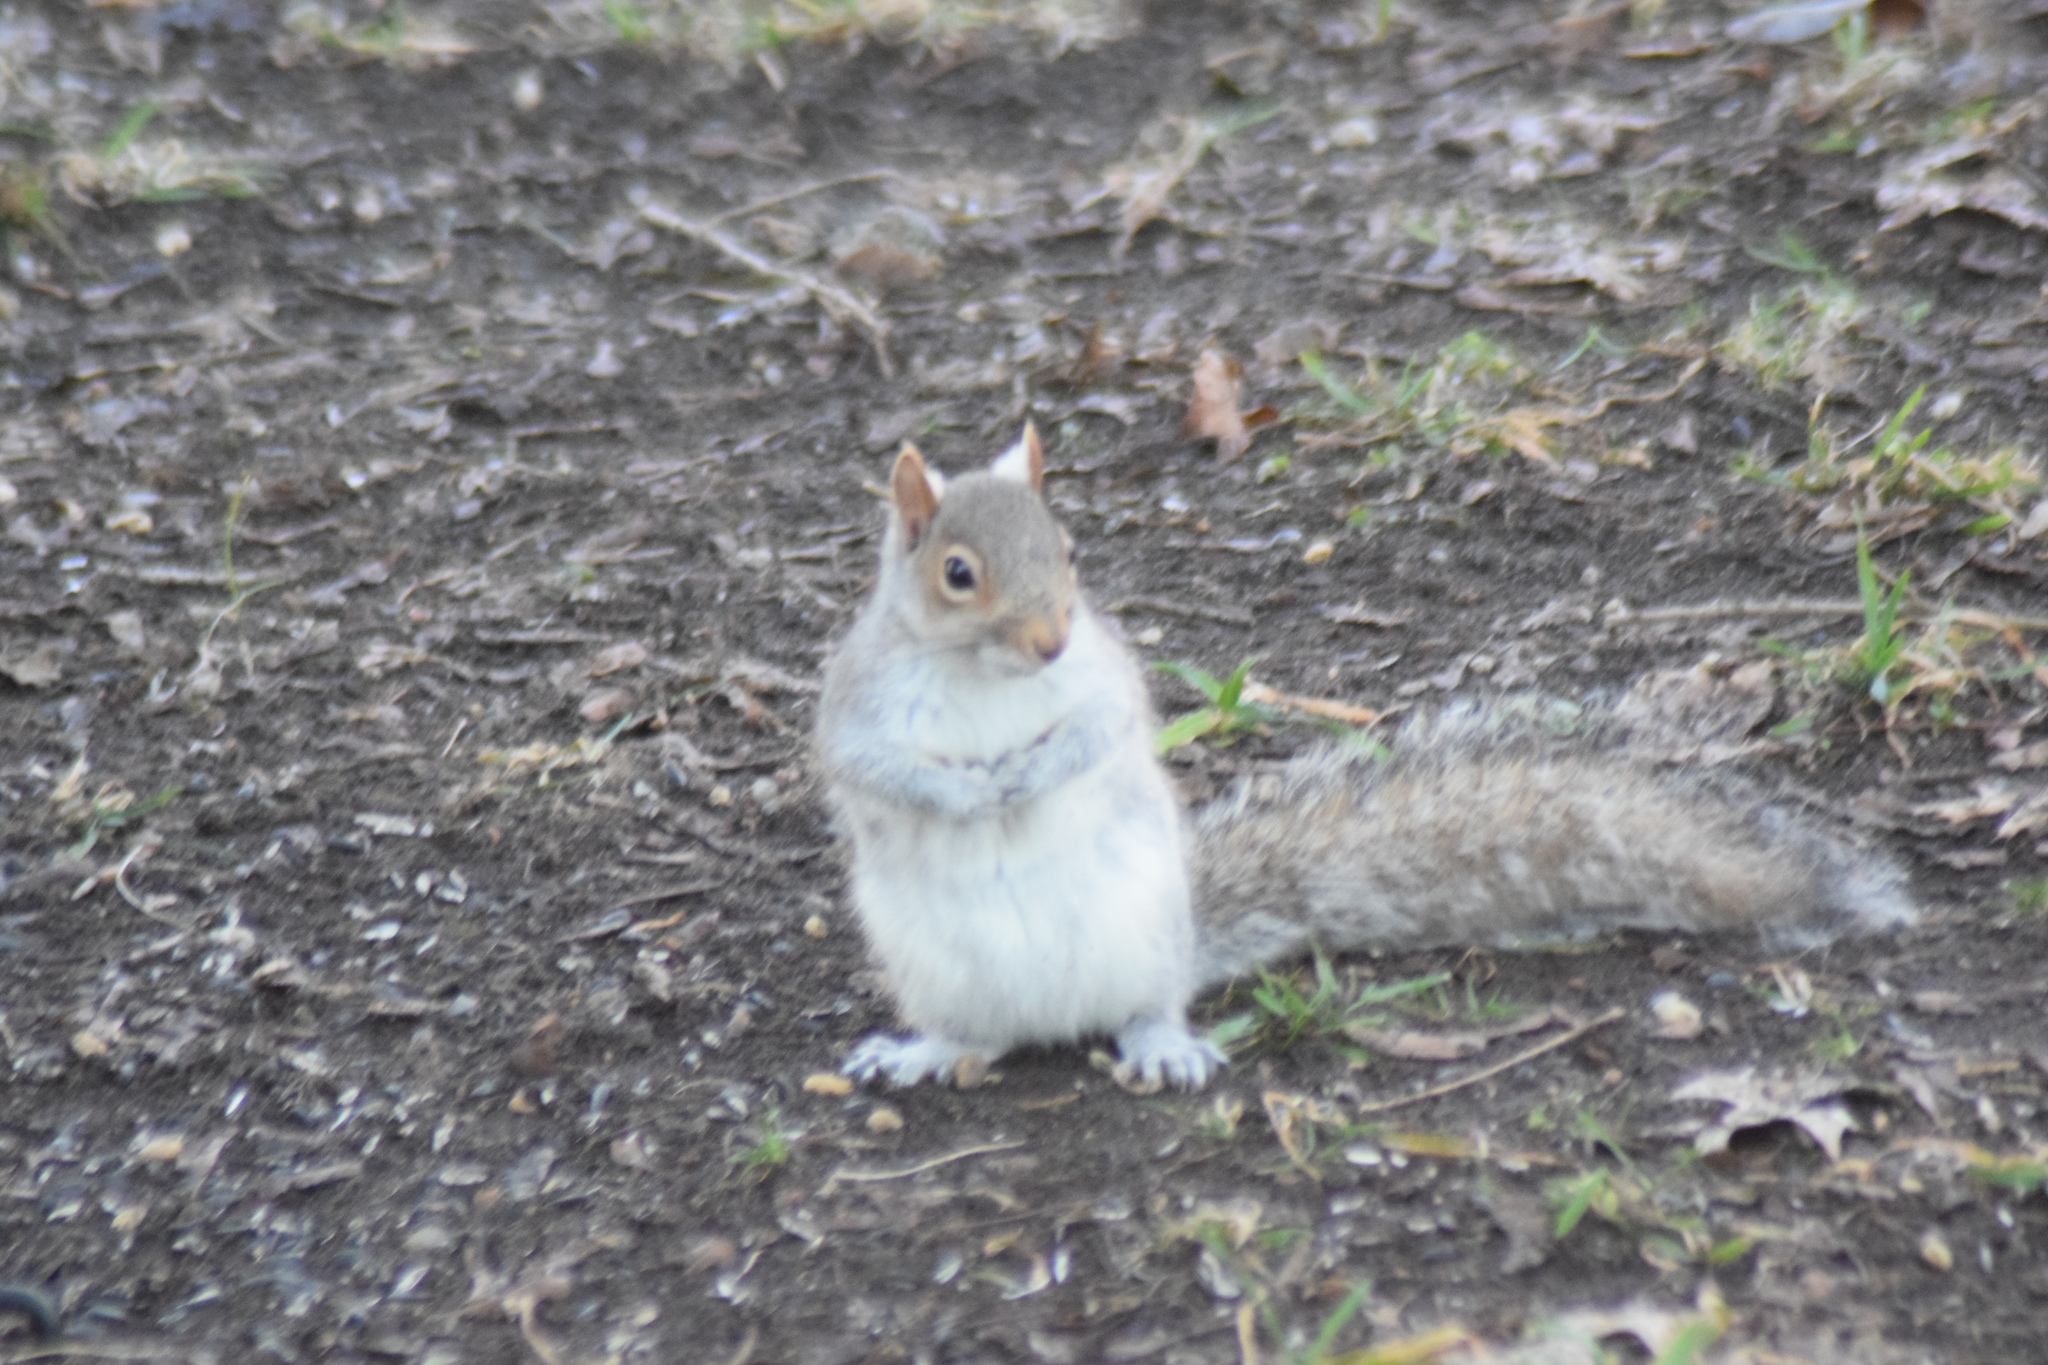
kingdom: Animalia
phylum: Chordata
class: Mammalia
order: Rodentia
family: Sciuridae
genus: Sciurus
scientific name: Sciurus carolinensis
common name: Eastern gray squirrel
